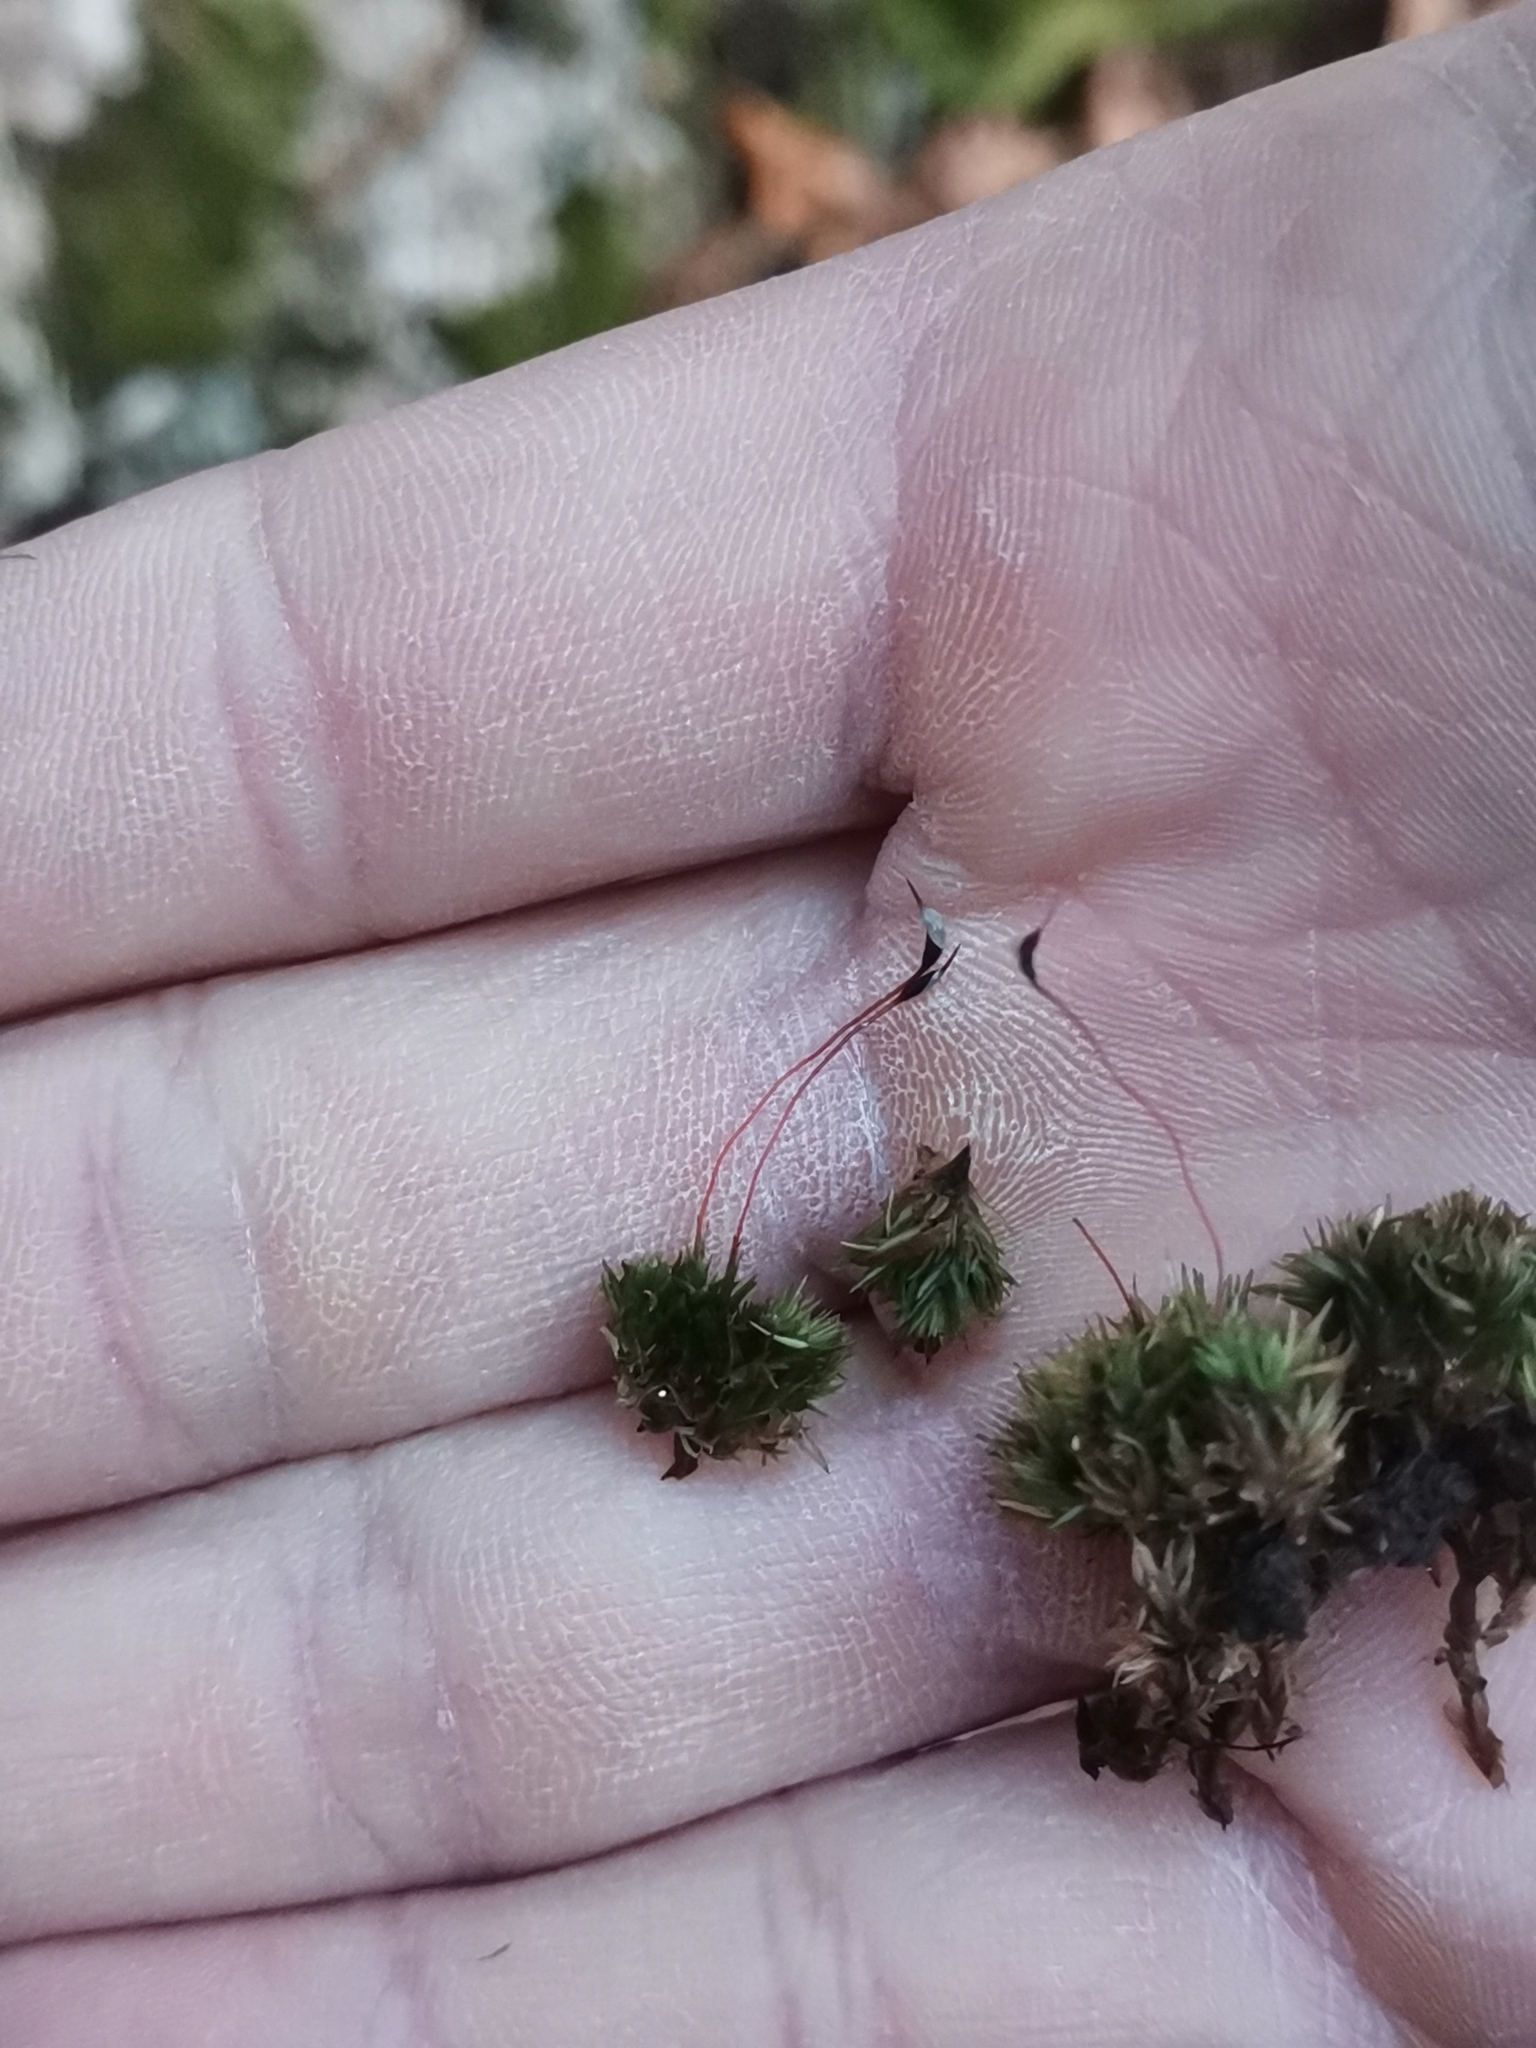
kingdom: Plantae
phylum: Bryophyta
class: Bryopsida
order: Dicranales
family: Leucobryaceae
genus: Leucobryum
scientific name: Leucobryum glaucum
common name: Large white-moss
